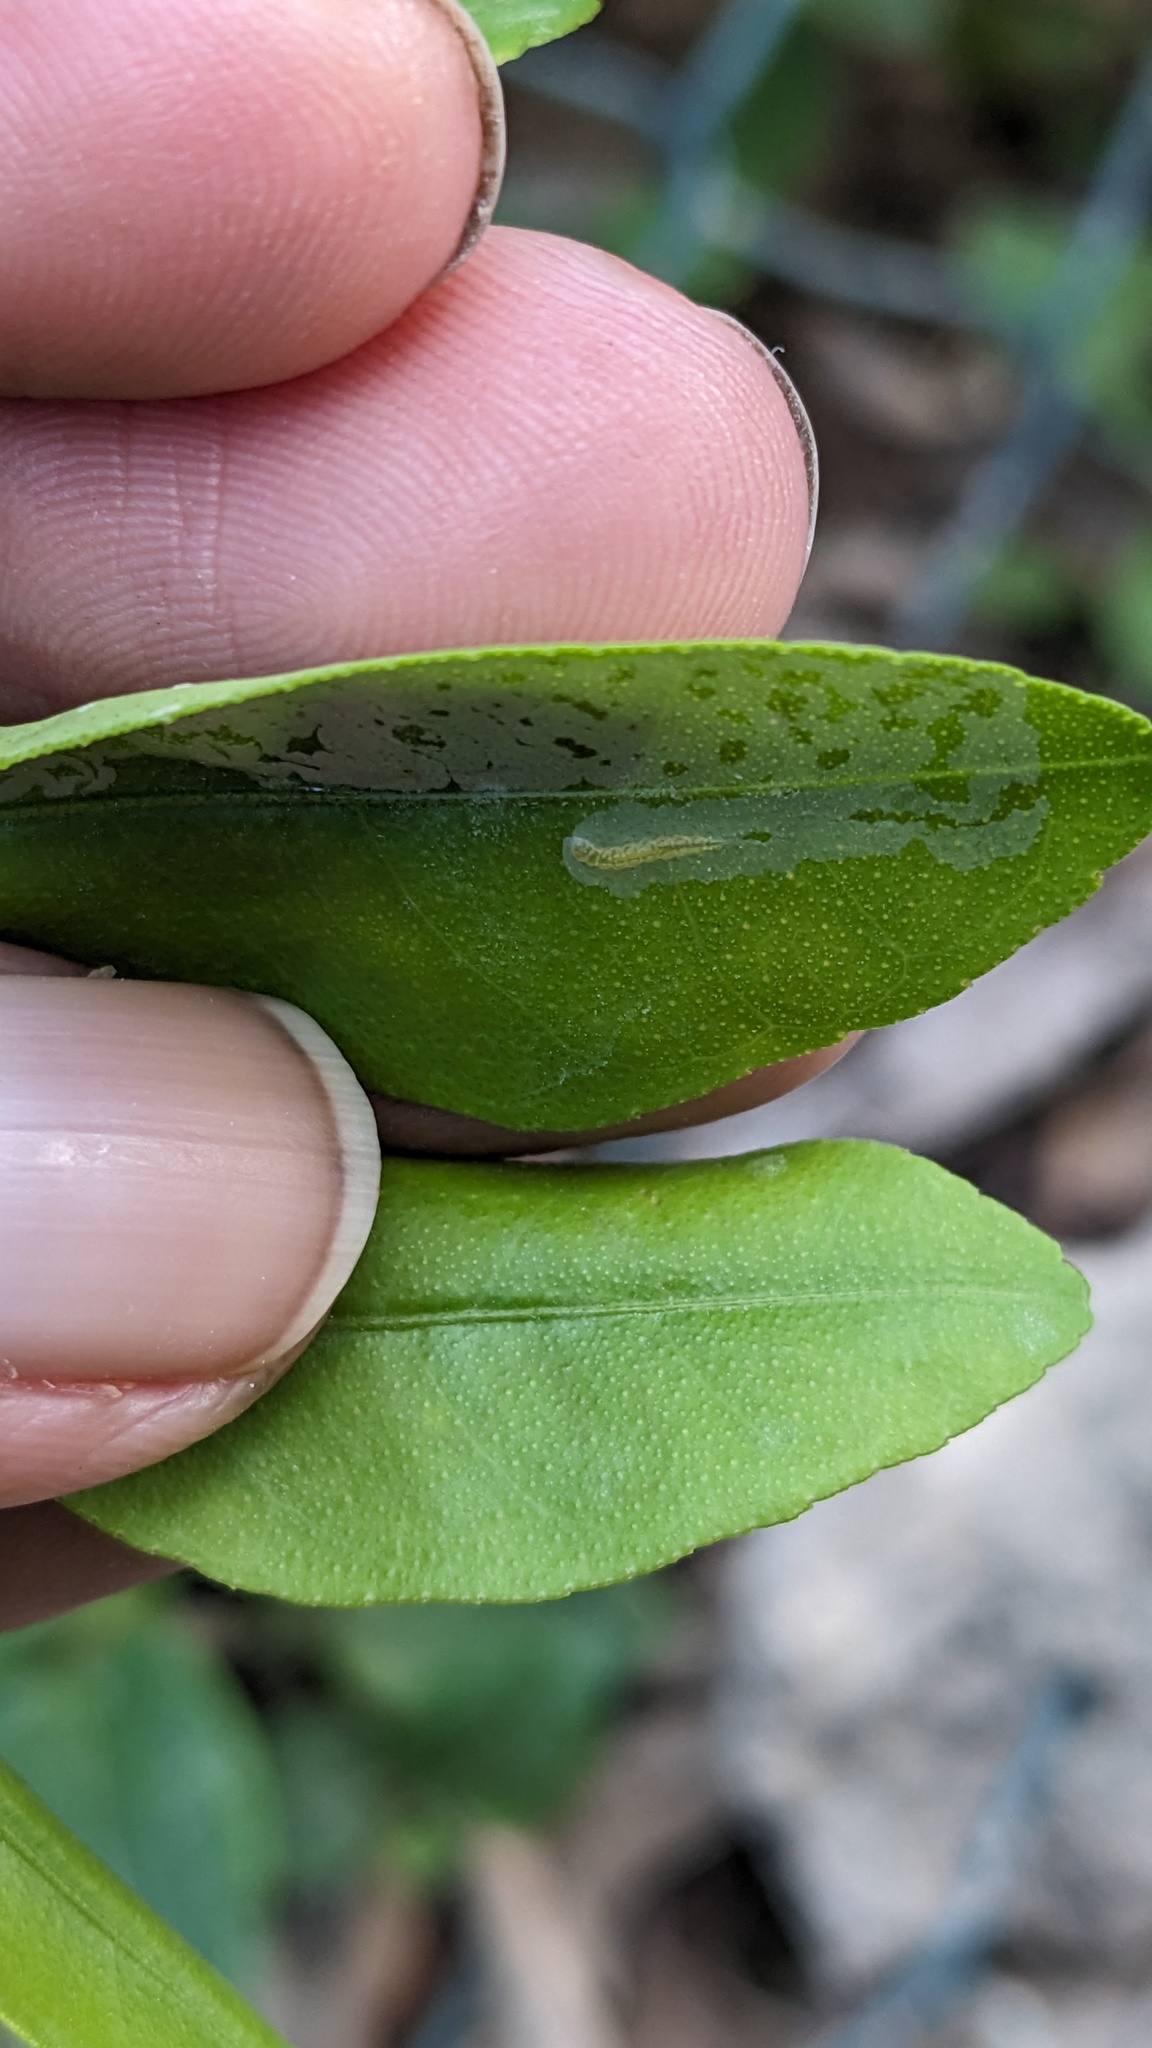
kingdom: Animalia
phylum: Arthropoda
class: Insecta
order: Lepidoptera
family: Gracillariidae
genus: Phyllocnistis
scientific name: Phyllocnistis citrella
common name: Citrus leafminer
